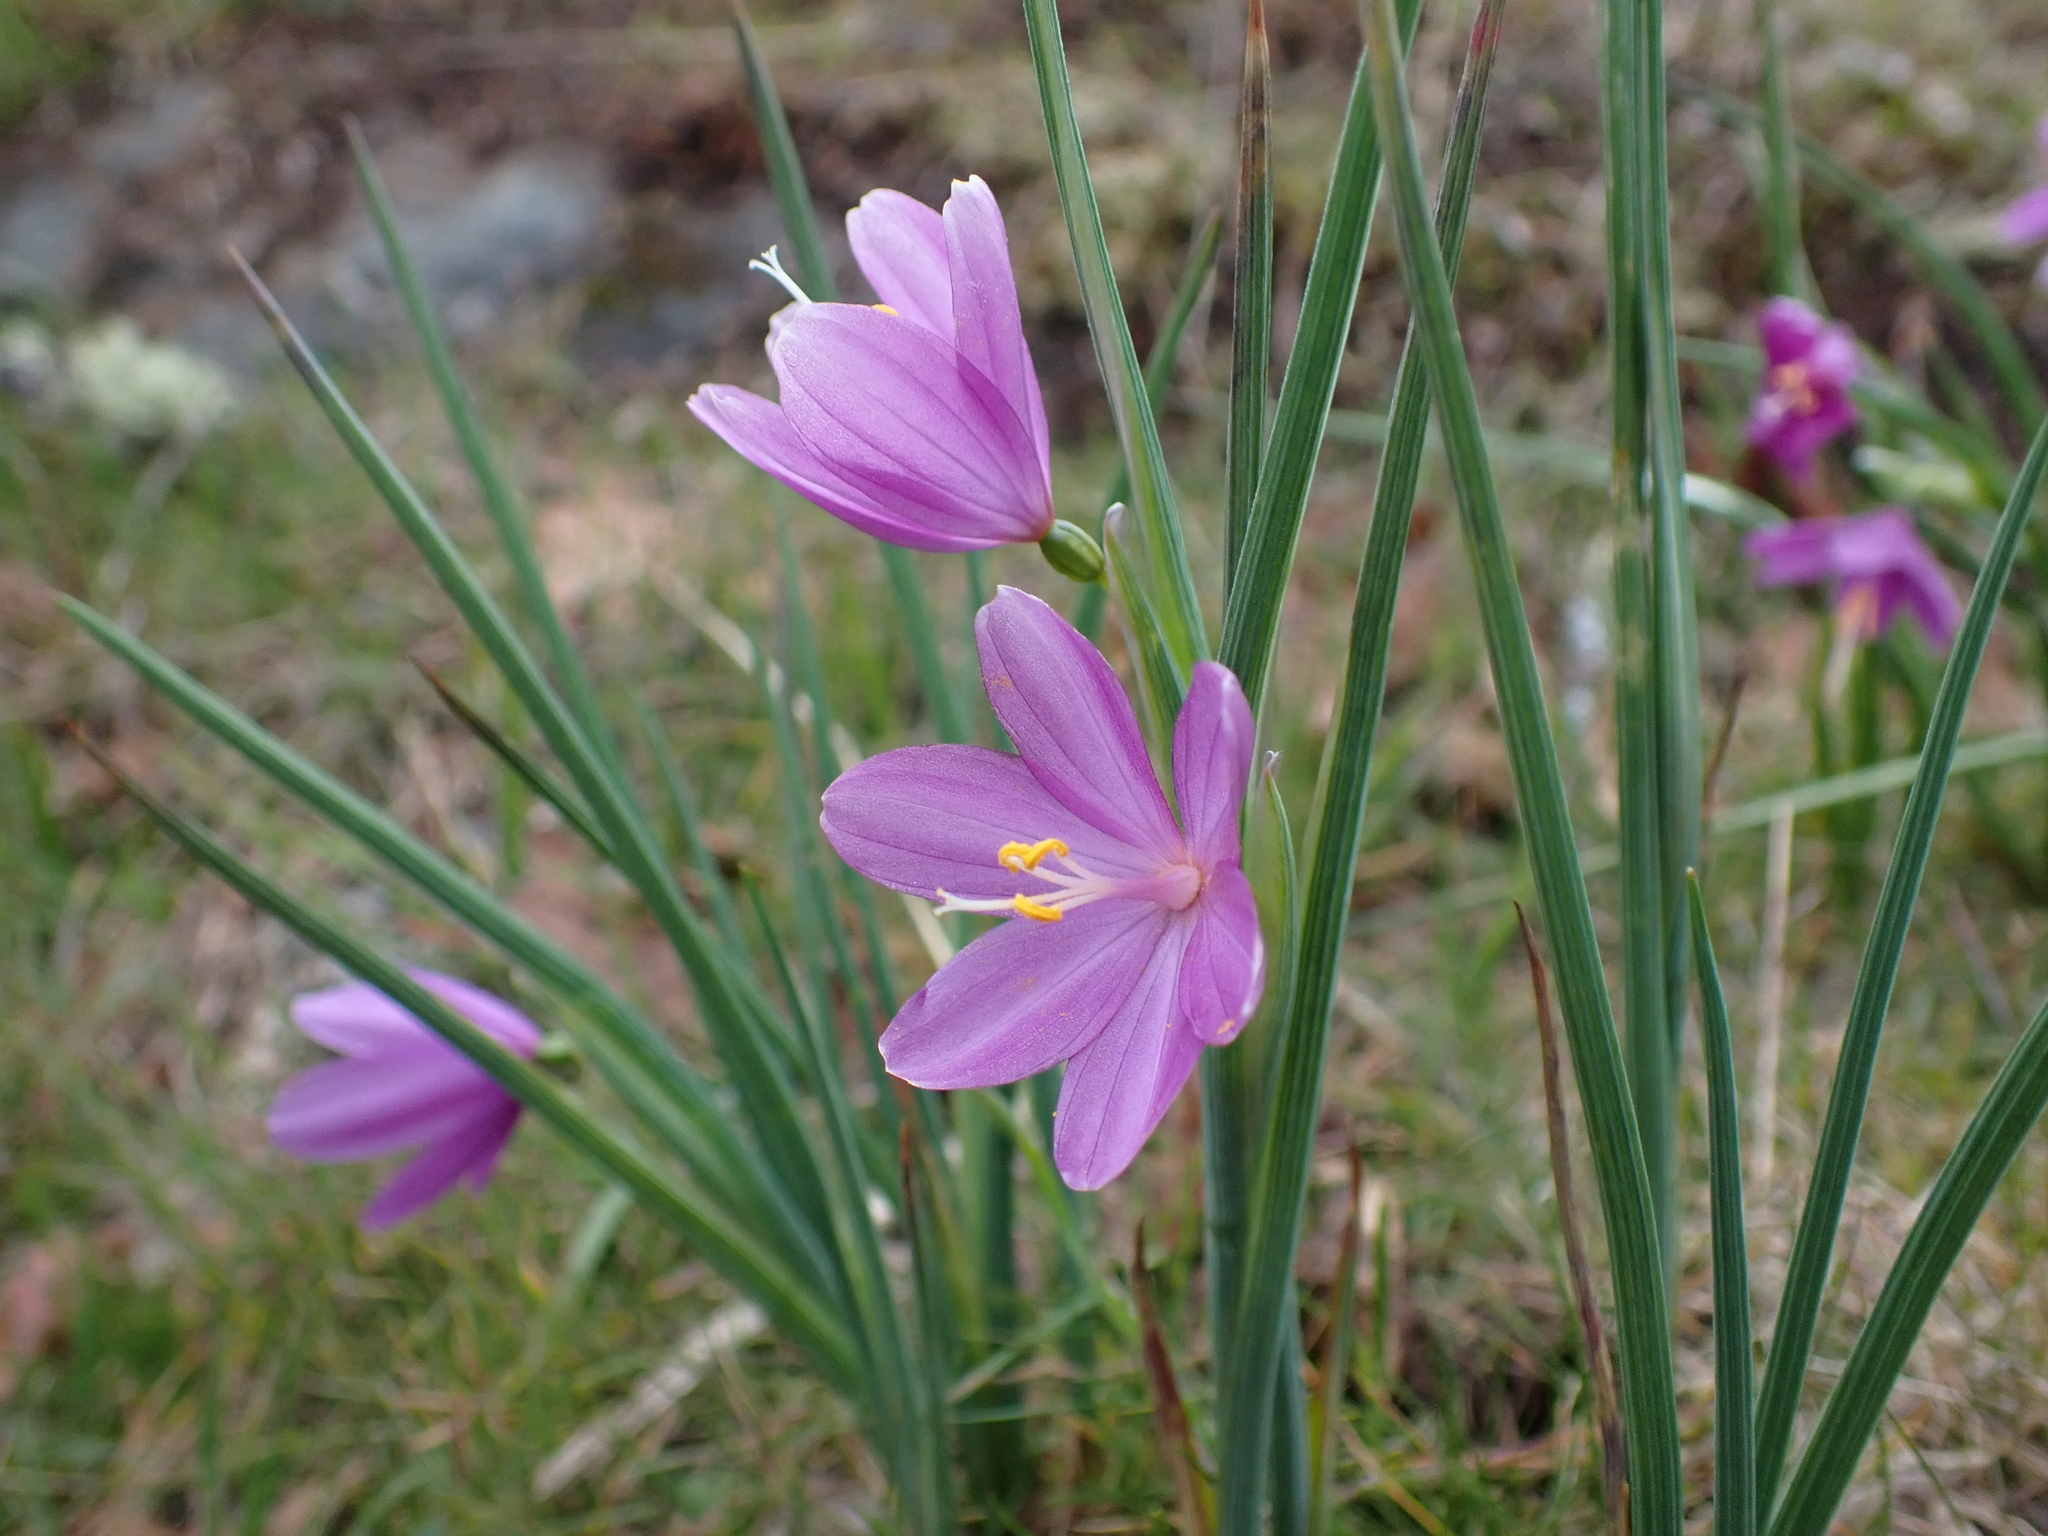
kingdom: Plantae
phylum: Tracheophyta
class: Liliopsida
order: Asparagales
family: Iridaceae
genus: Olsynium
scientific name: Olsynium douglasii
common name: Douglas' grasswidow
